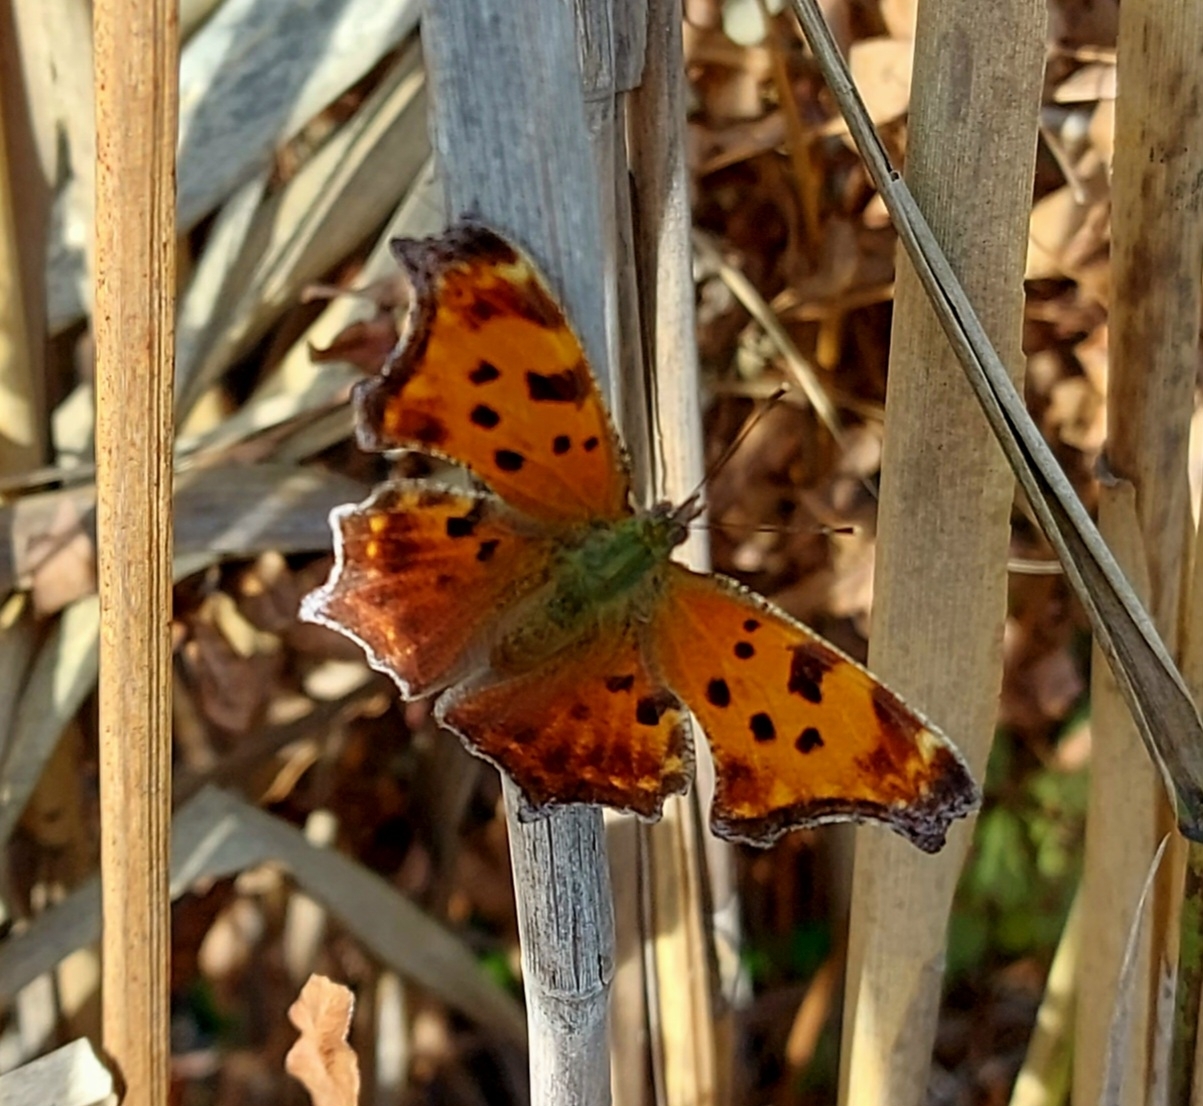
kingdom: Animalia
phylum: Arthropoda
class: Insecta
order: Lepidoptera
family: Nymphalidae
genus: Polygonia
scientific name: Polygonia comma
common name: Eastern comma
